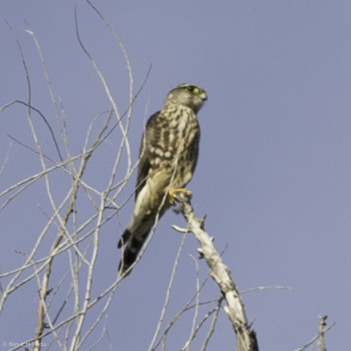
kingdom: Animalia
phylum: Chordata
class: Aves
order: Falconiformes
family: Falconidae
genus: Falco
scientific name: Falco columbarius
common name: Merlin
